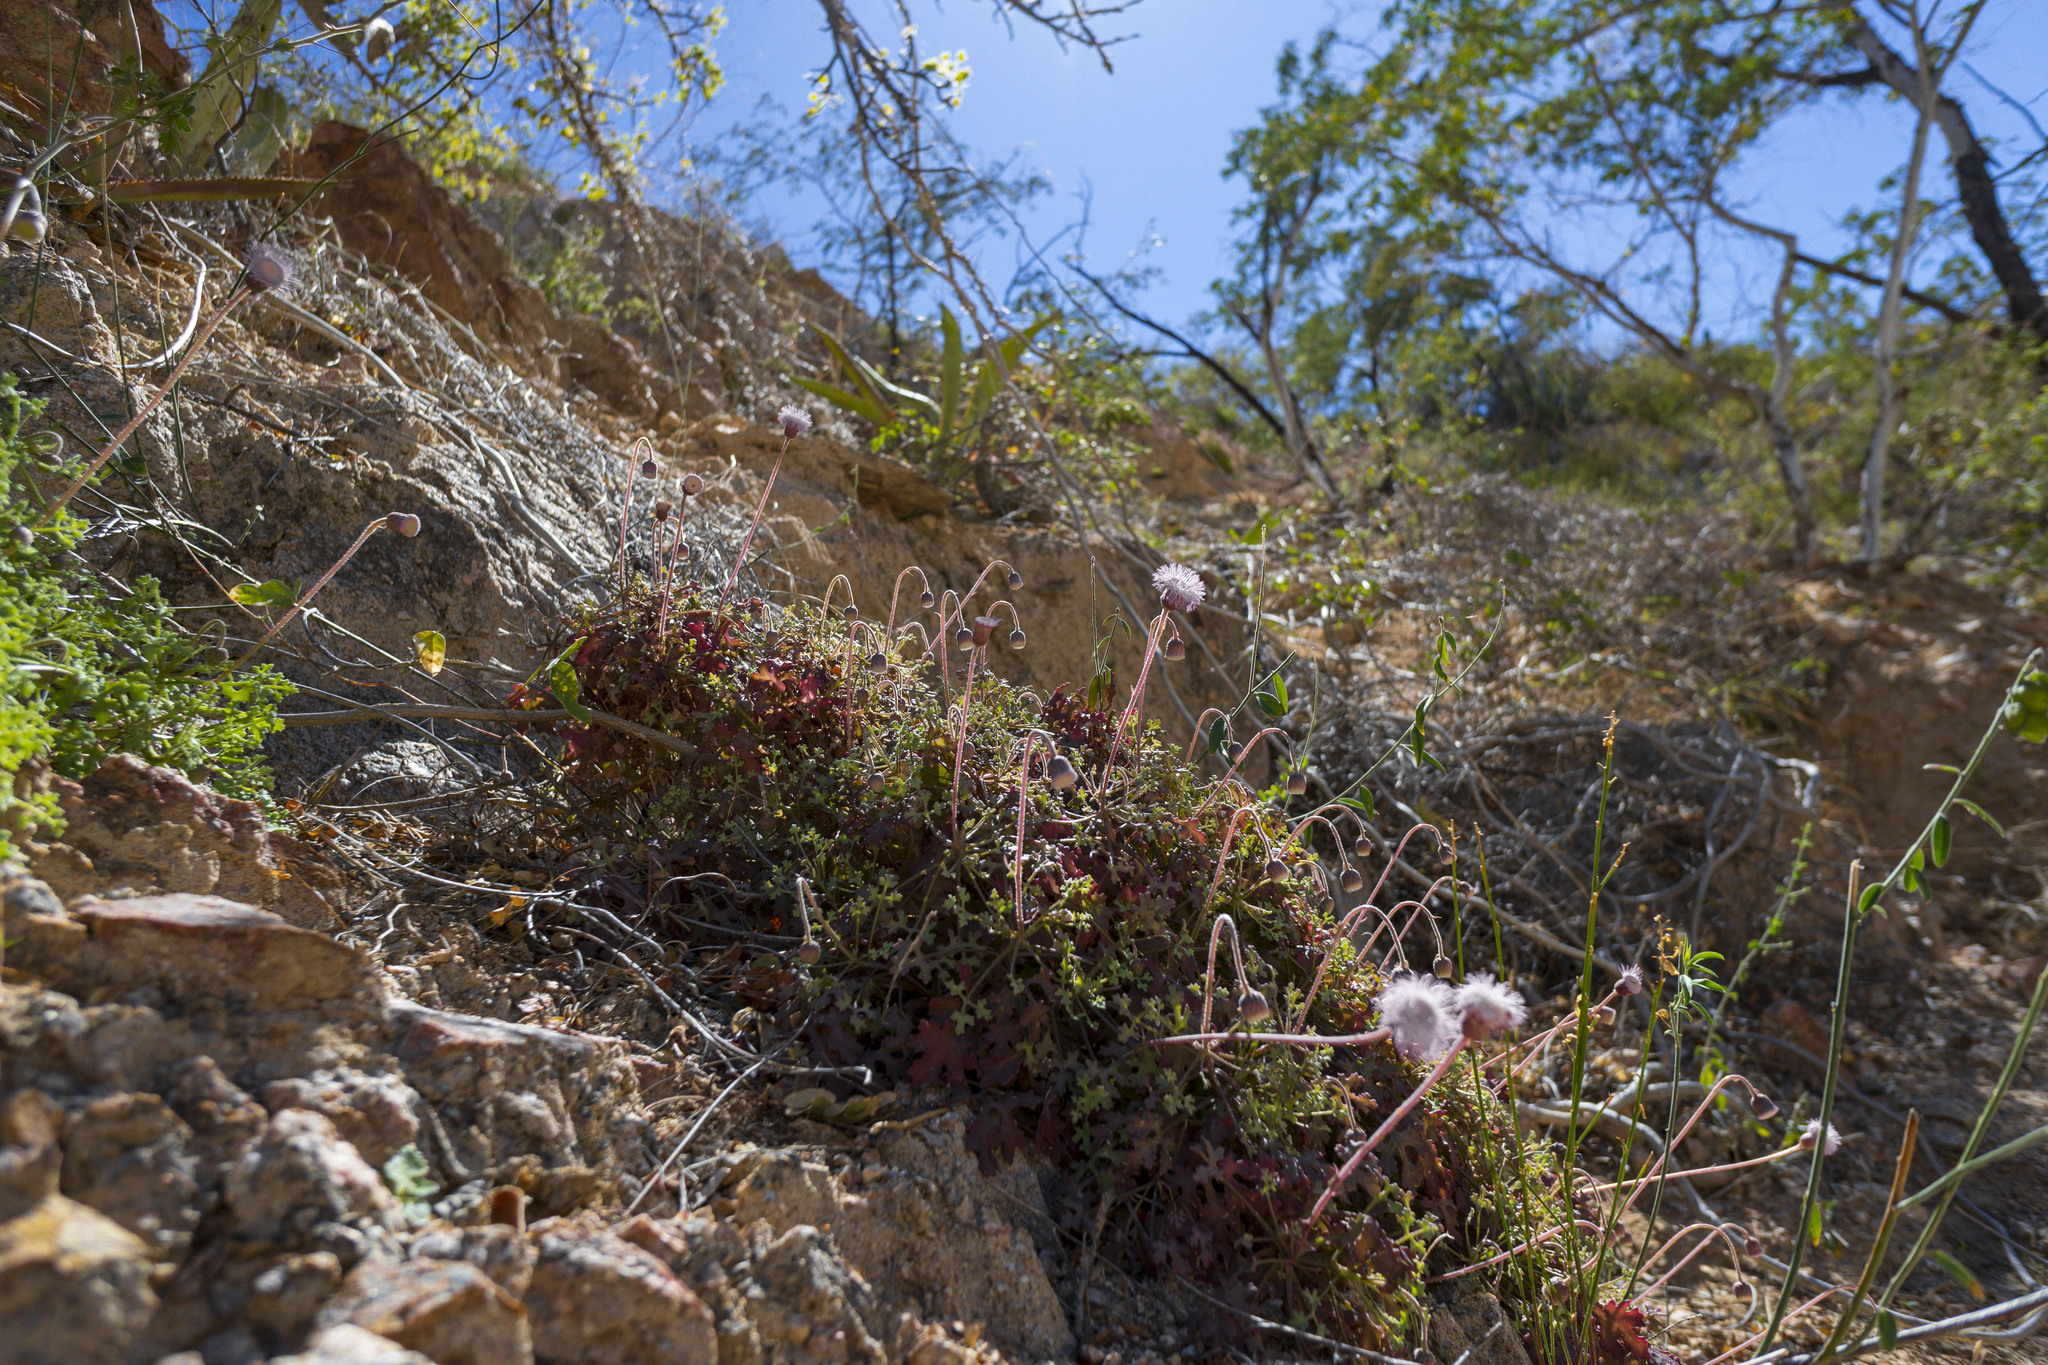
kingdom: Plantae
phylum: Tracheophyta
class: Magnoliopsida
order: Asterales
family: Asteraceae
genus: Hofmeisteria
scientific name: Hofmeisteria fasciculata
